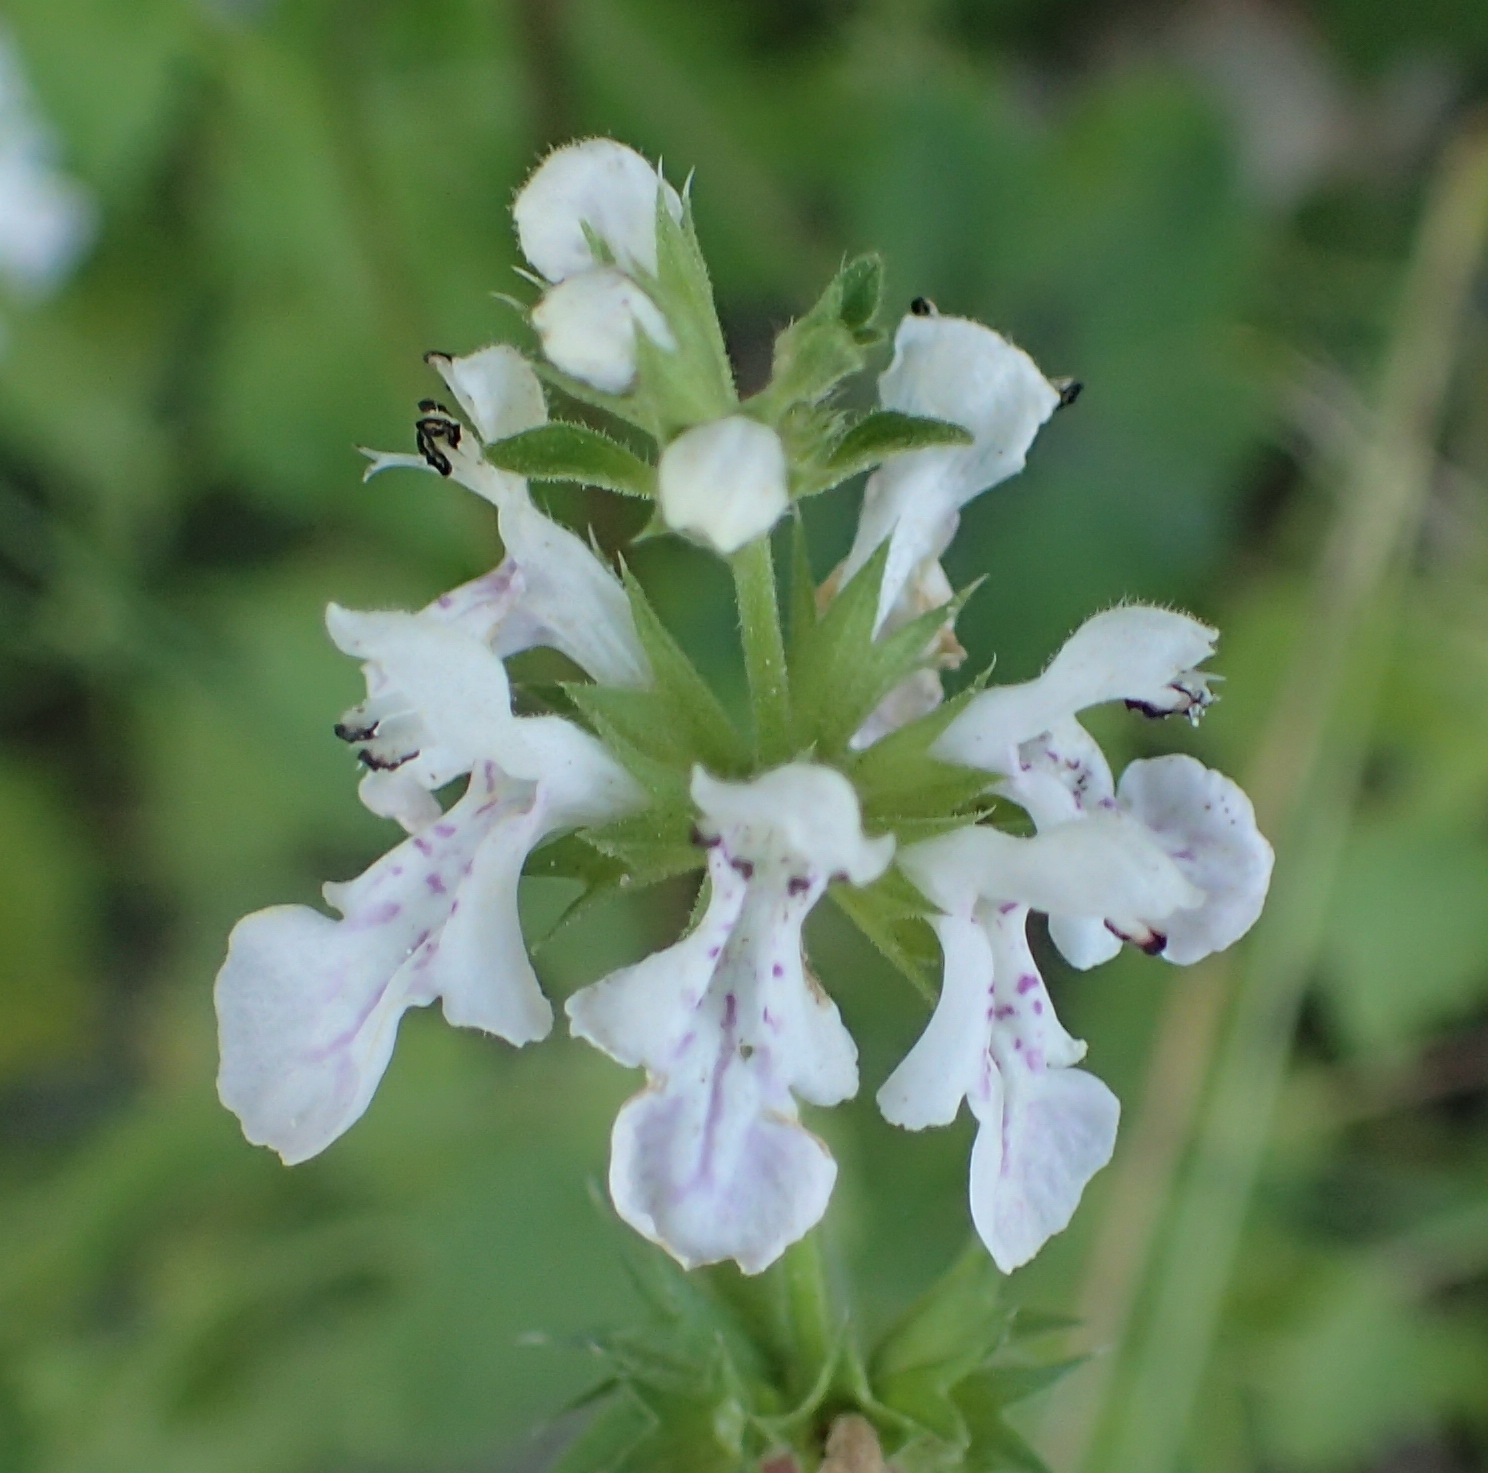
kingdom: Plantae
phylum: Tracheophyta
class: Magnoliopsida
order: Lamiales
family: Lamiaceae
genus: Stachys
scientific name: Stachys aethiopica
